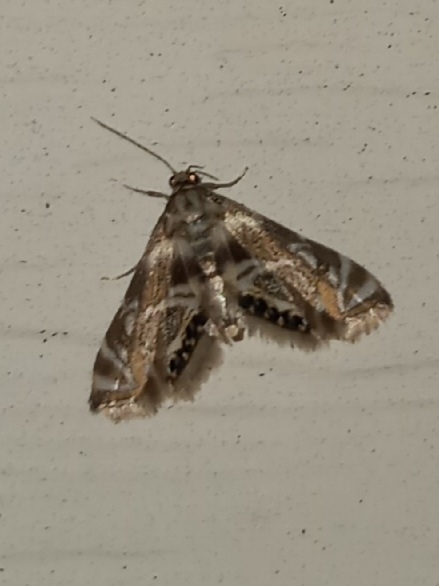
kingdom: Animalia
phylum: Arthropoda
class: Insecta
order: Lepidoptera
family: Crambidae
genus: Petrophila
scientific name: Petrophila canadensis
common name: Canadian petrophila
